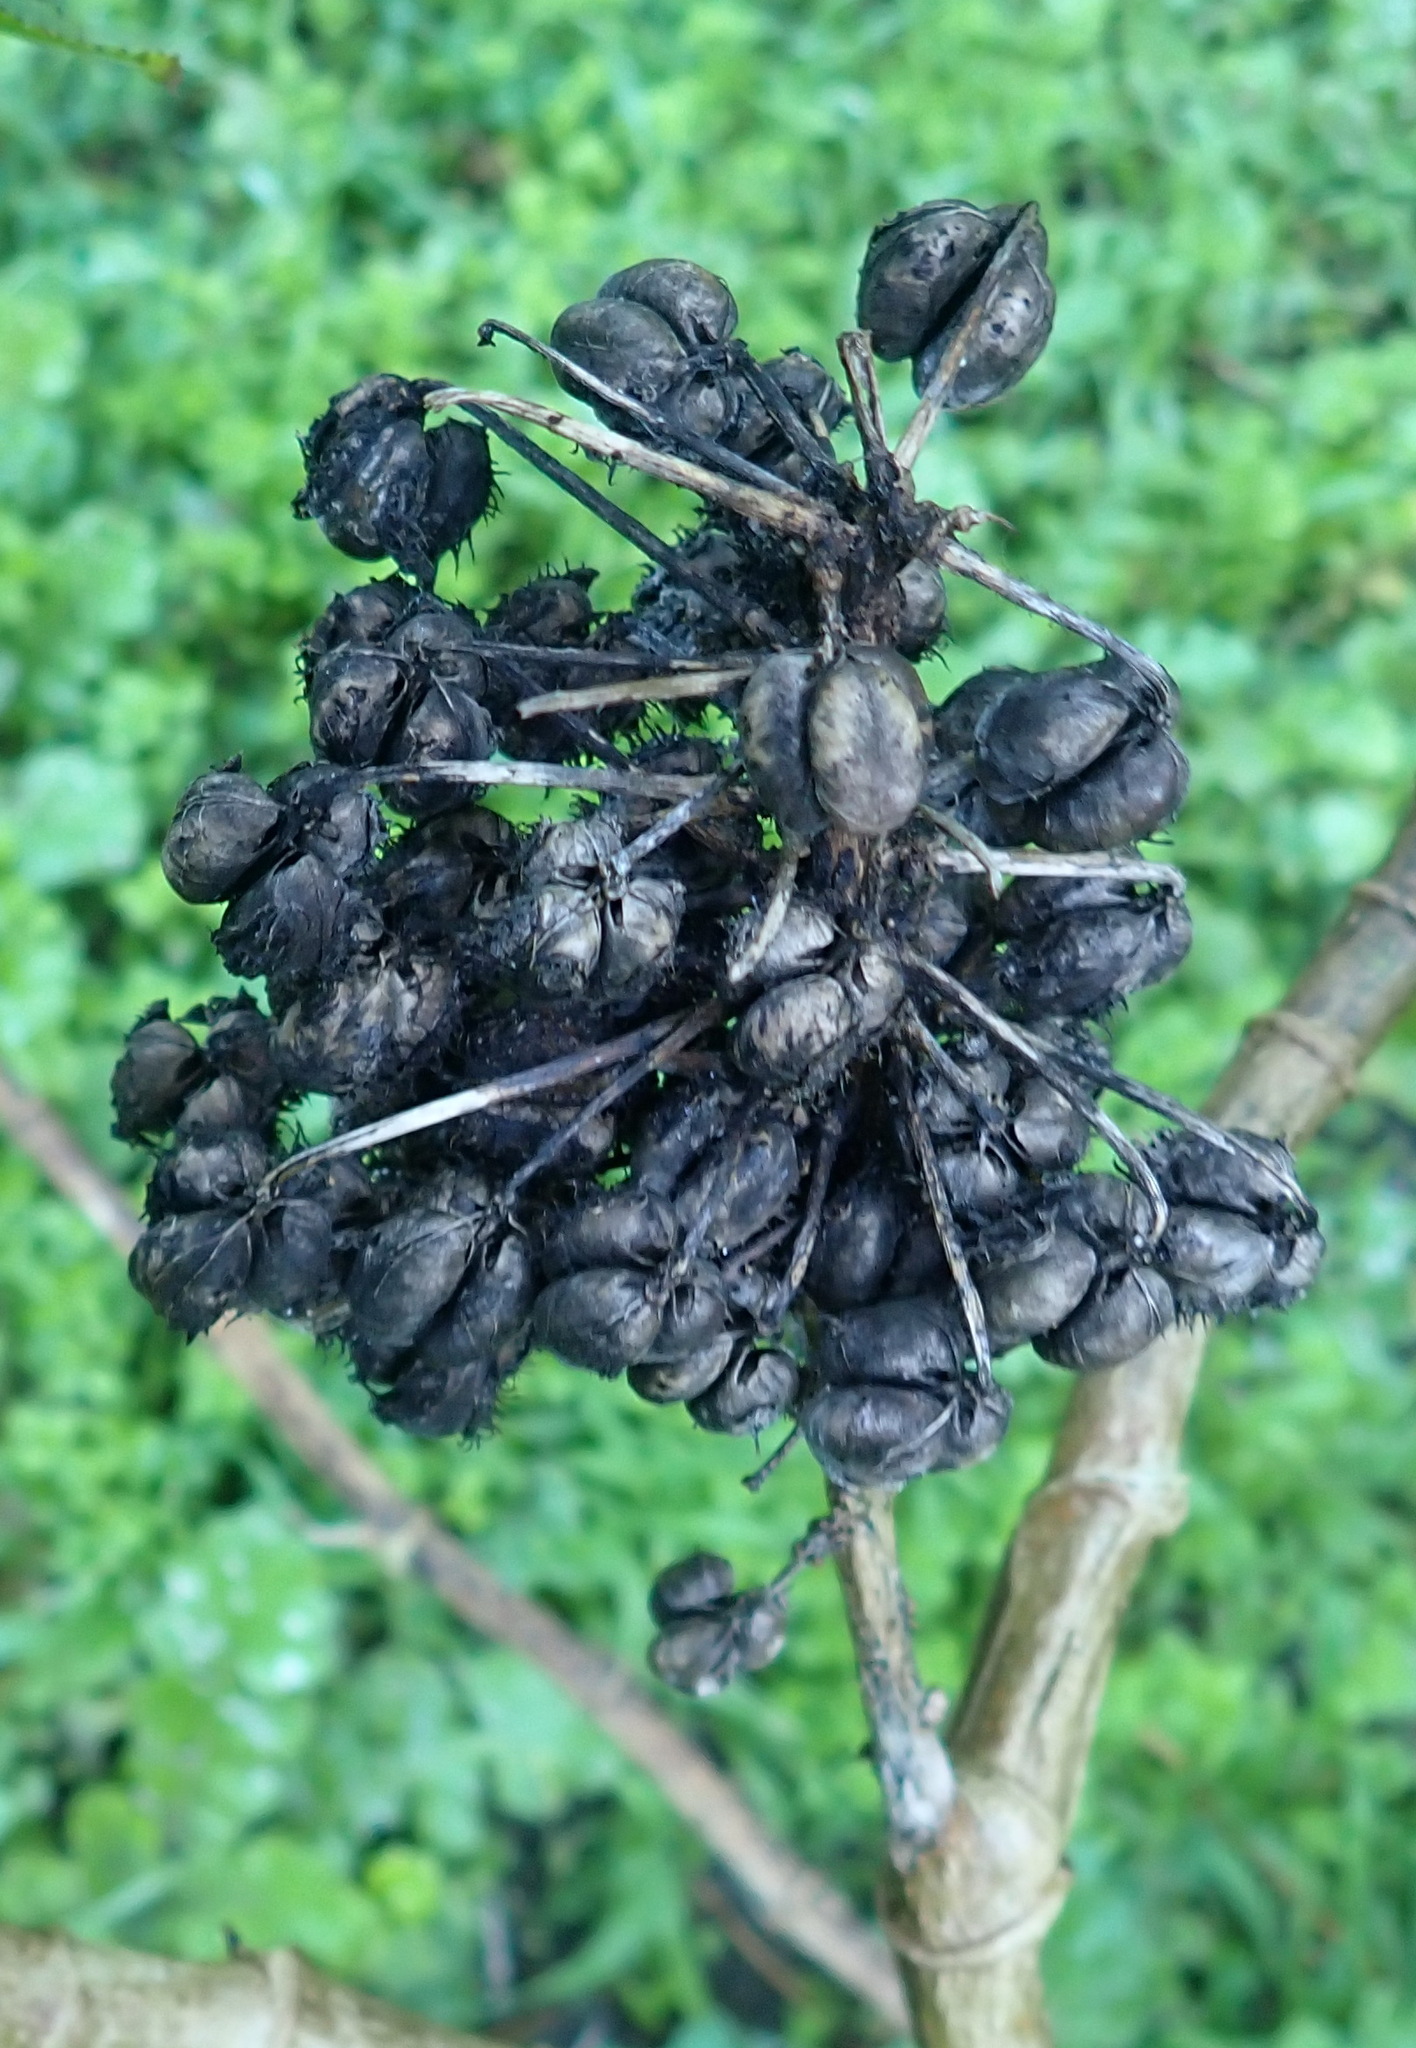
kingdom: Plantae
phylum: Tracheophyta
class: Magnoliopsida
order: Malpighiales
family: Euphorbiaceae
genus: Ricinus
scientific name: Ricinus communis
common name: Castor-oil-plant
